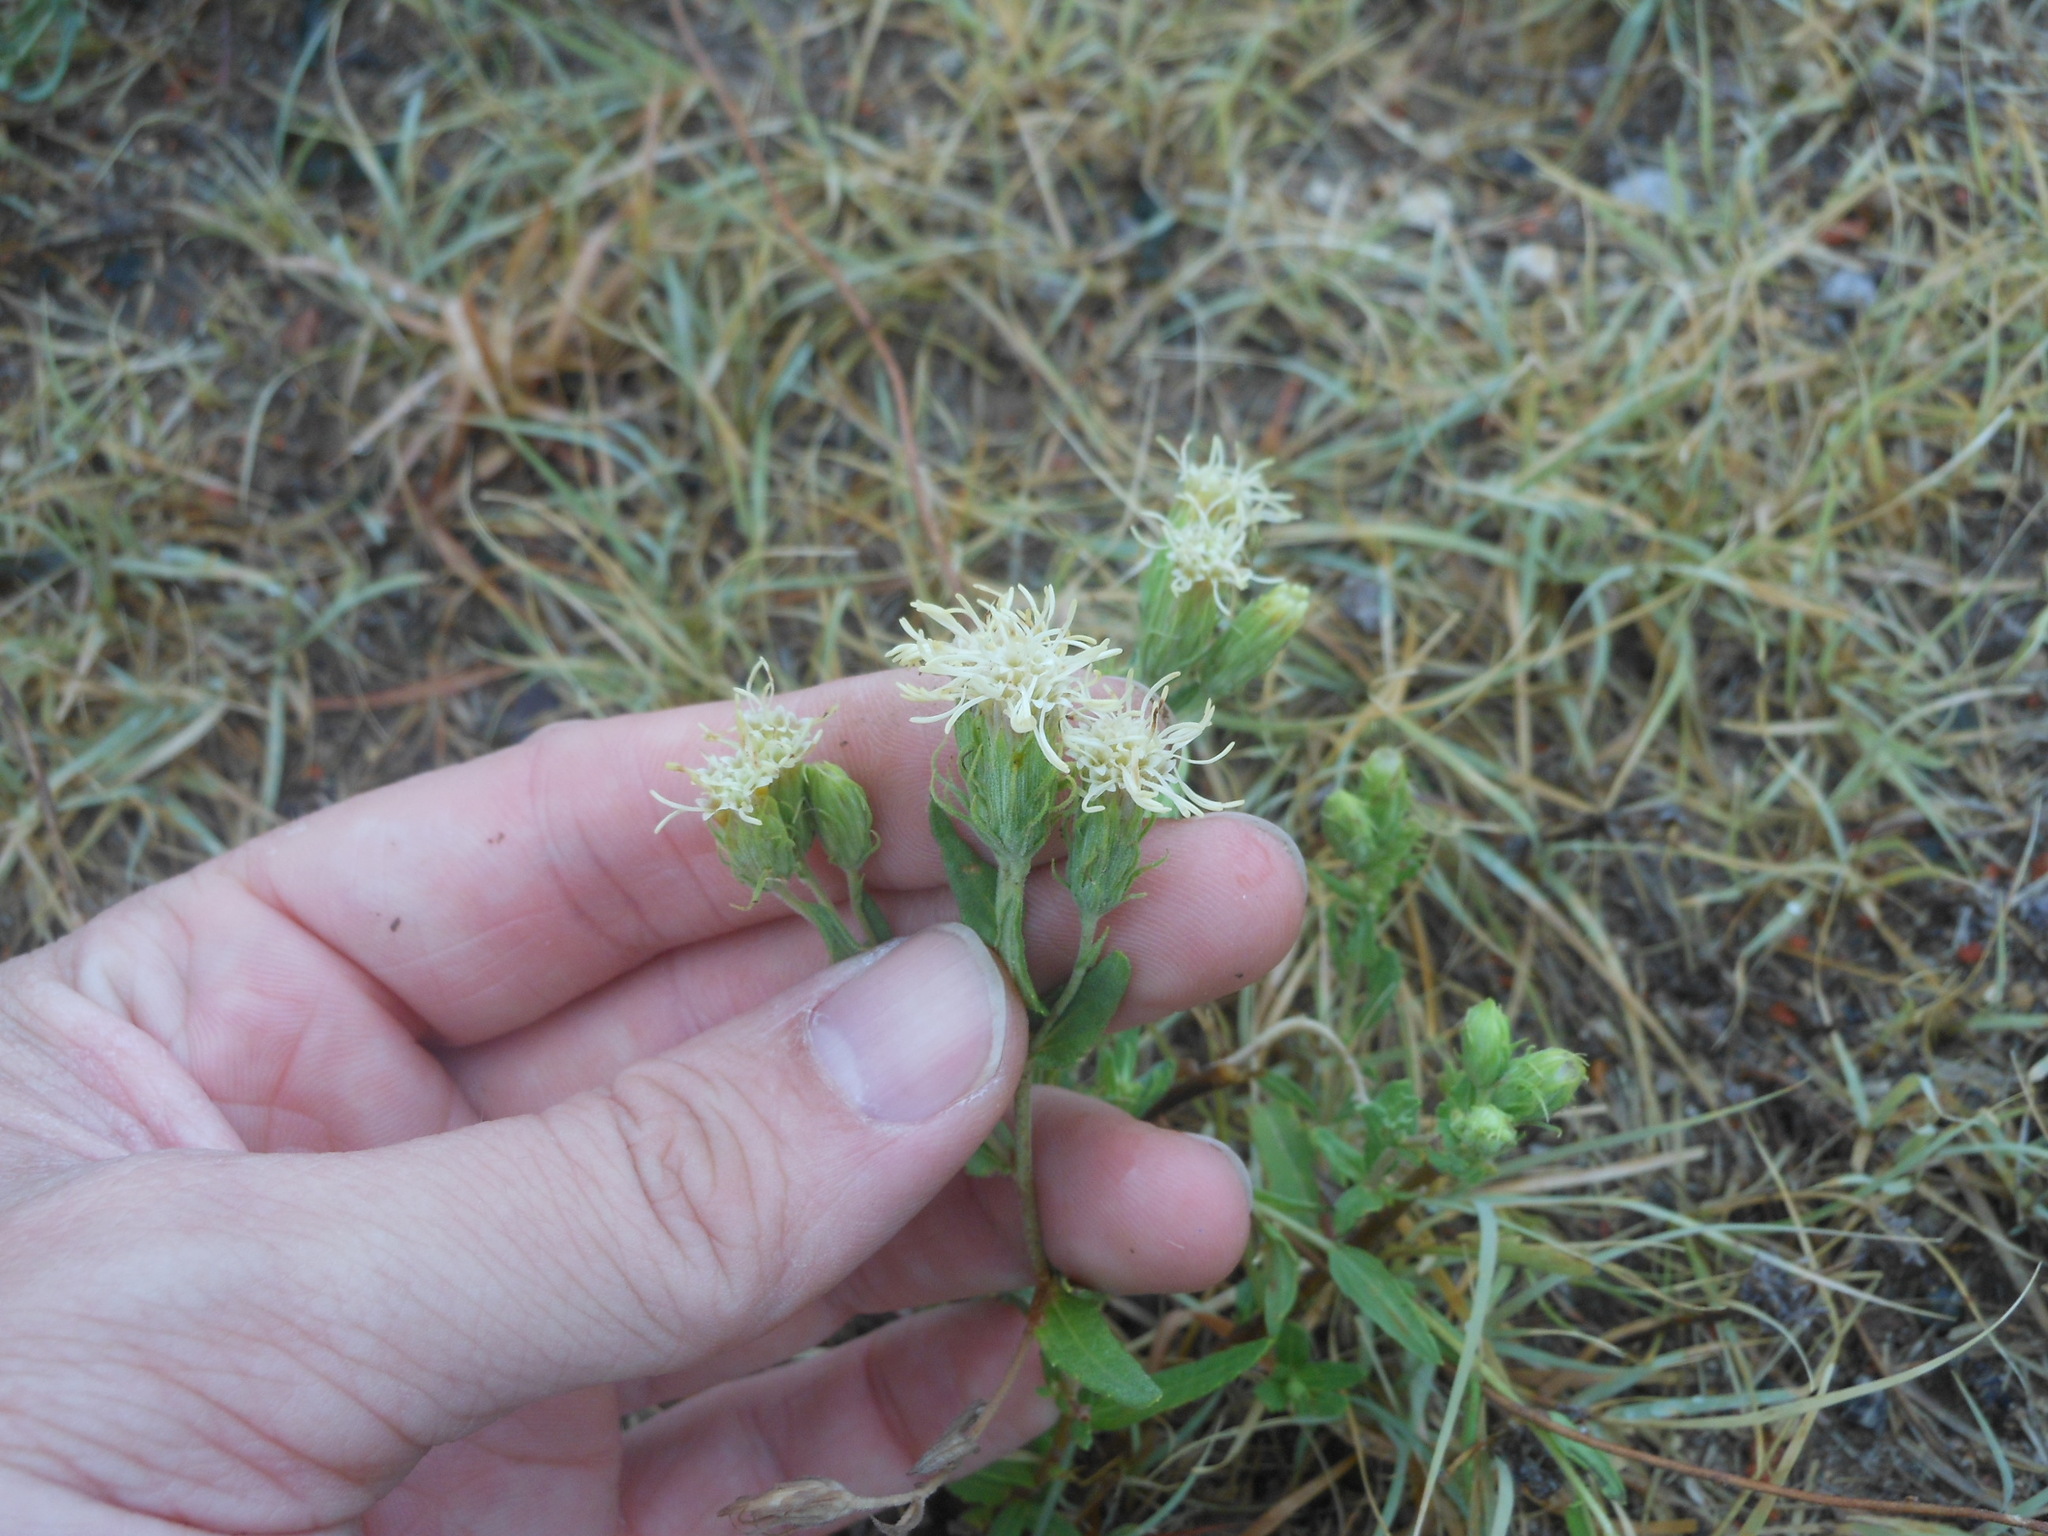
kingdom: Plantae
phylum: Tracheophyta
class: Magnoliopsida
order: Asterales
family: Asteraceae
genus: Brickellia
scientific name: Brickellia eupatorioides
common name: False boneset
